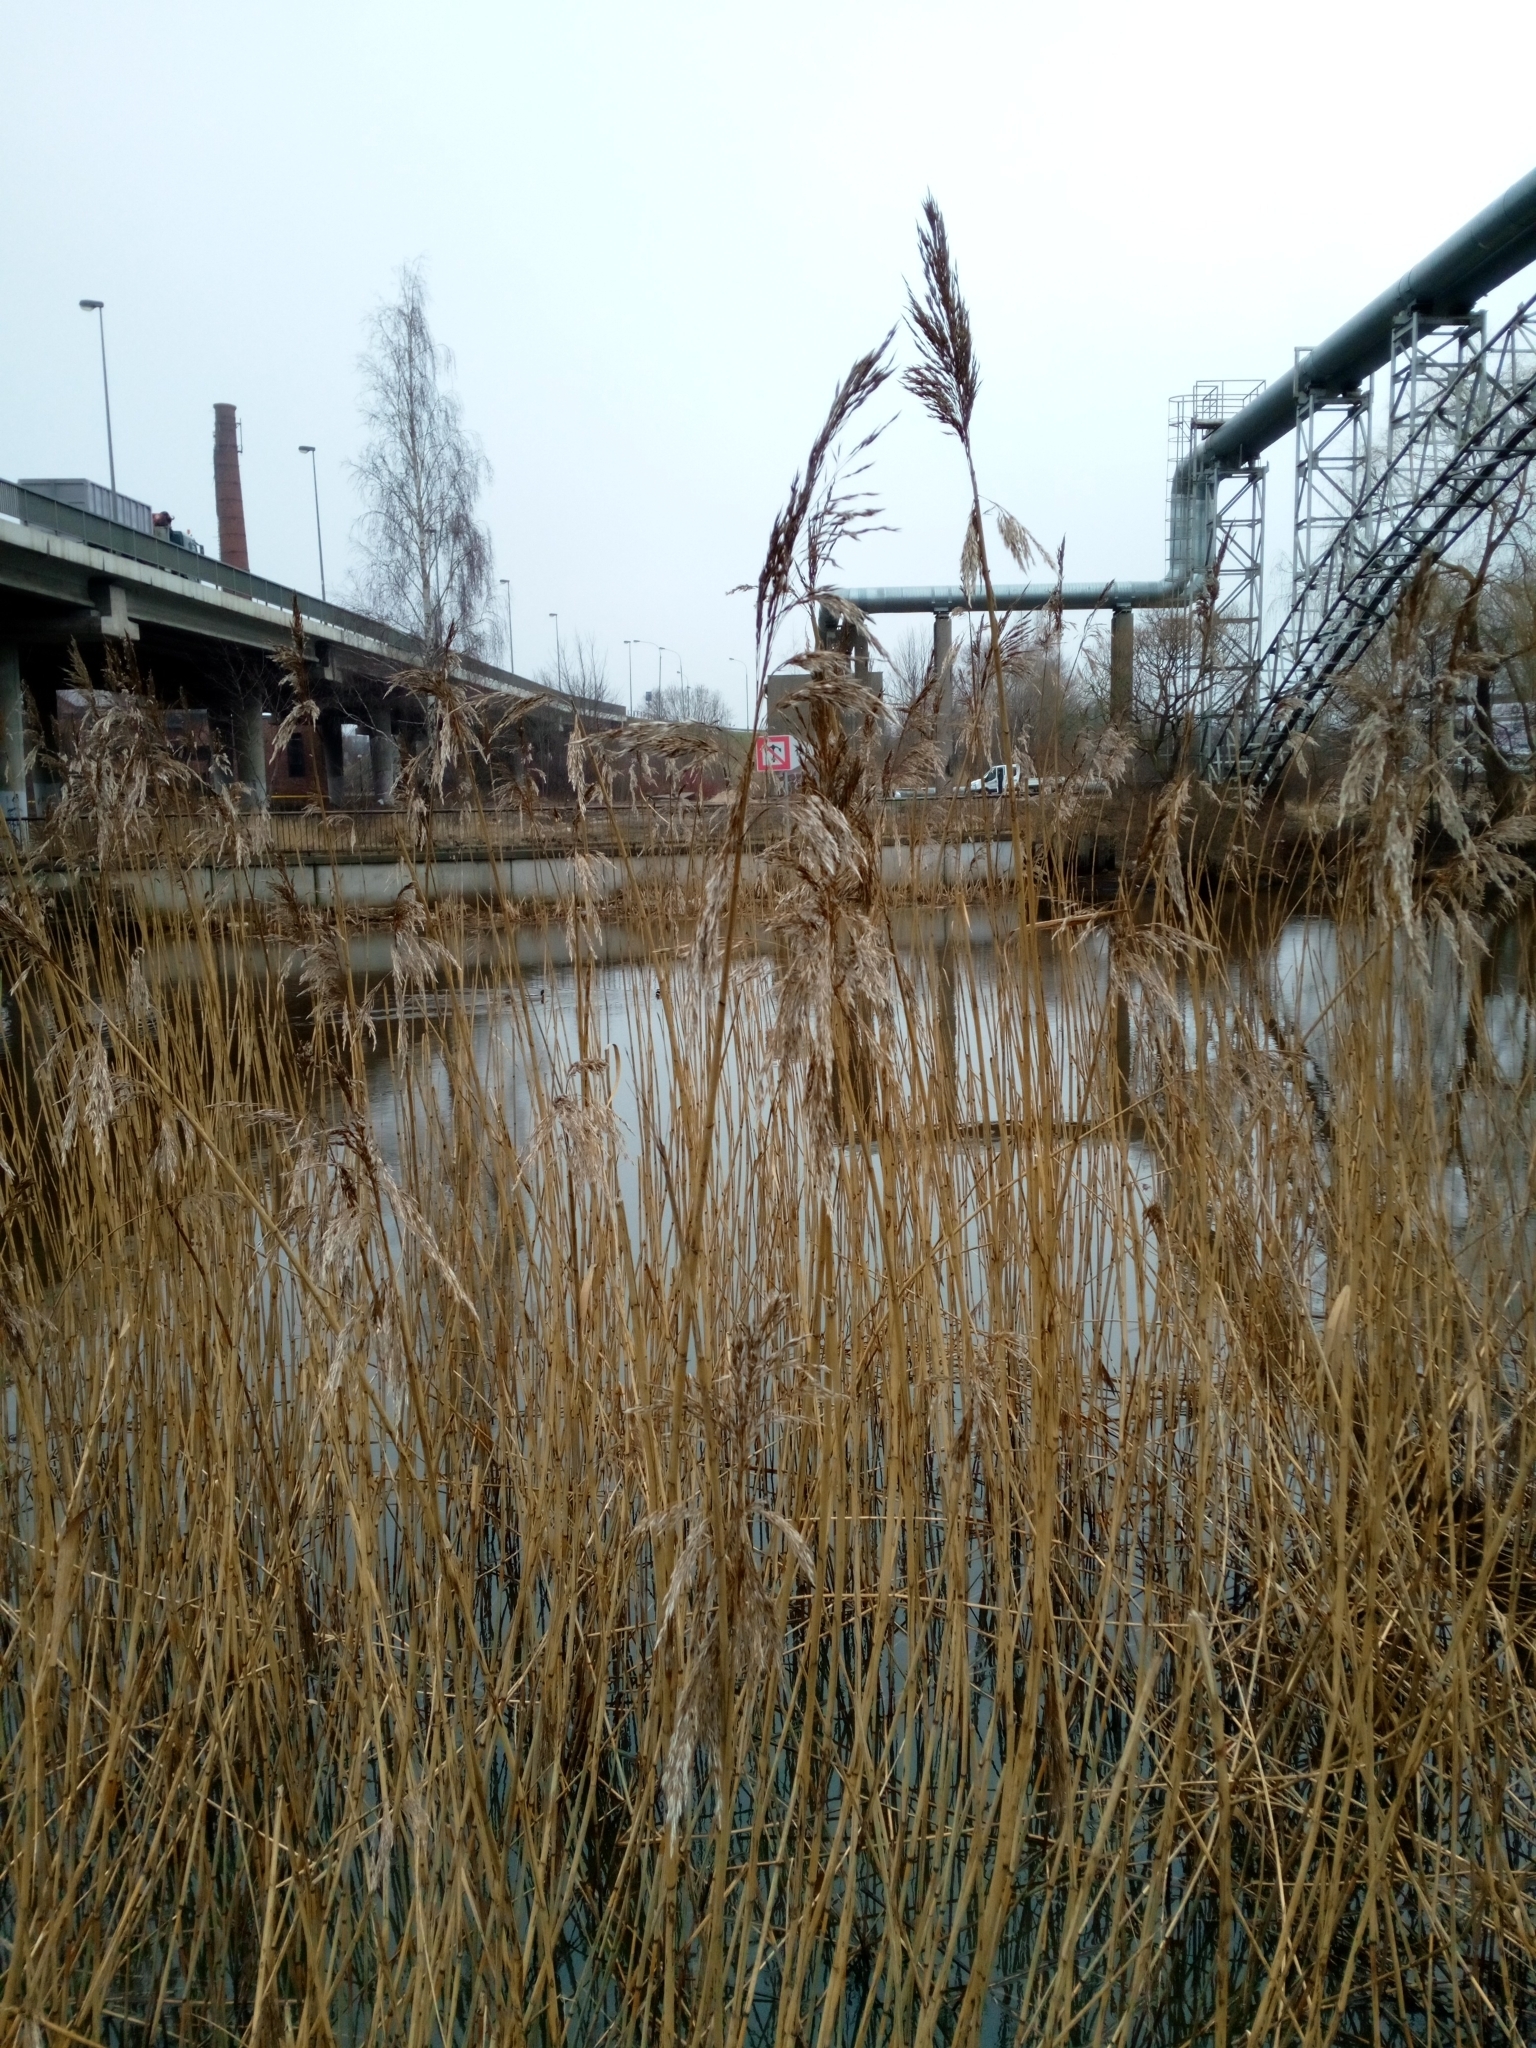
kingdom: Plantae
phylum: Tracheophyta
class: Liliopsida
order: Poales
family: Poaceae
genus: Phragmites
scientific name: Phragmites australis
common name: Common reed
